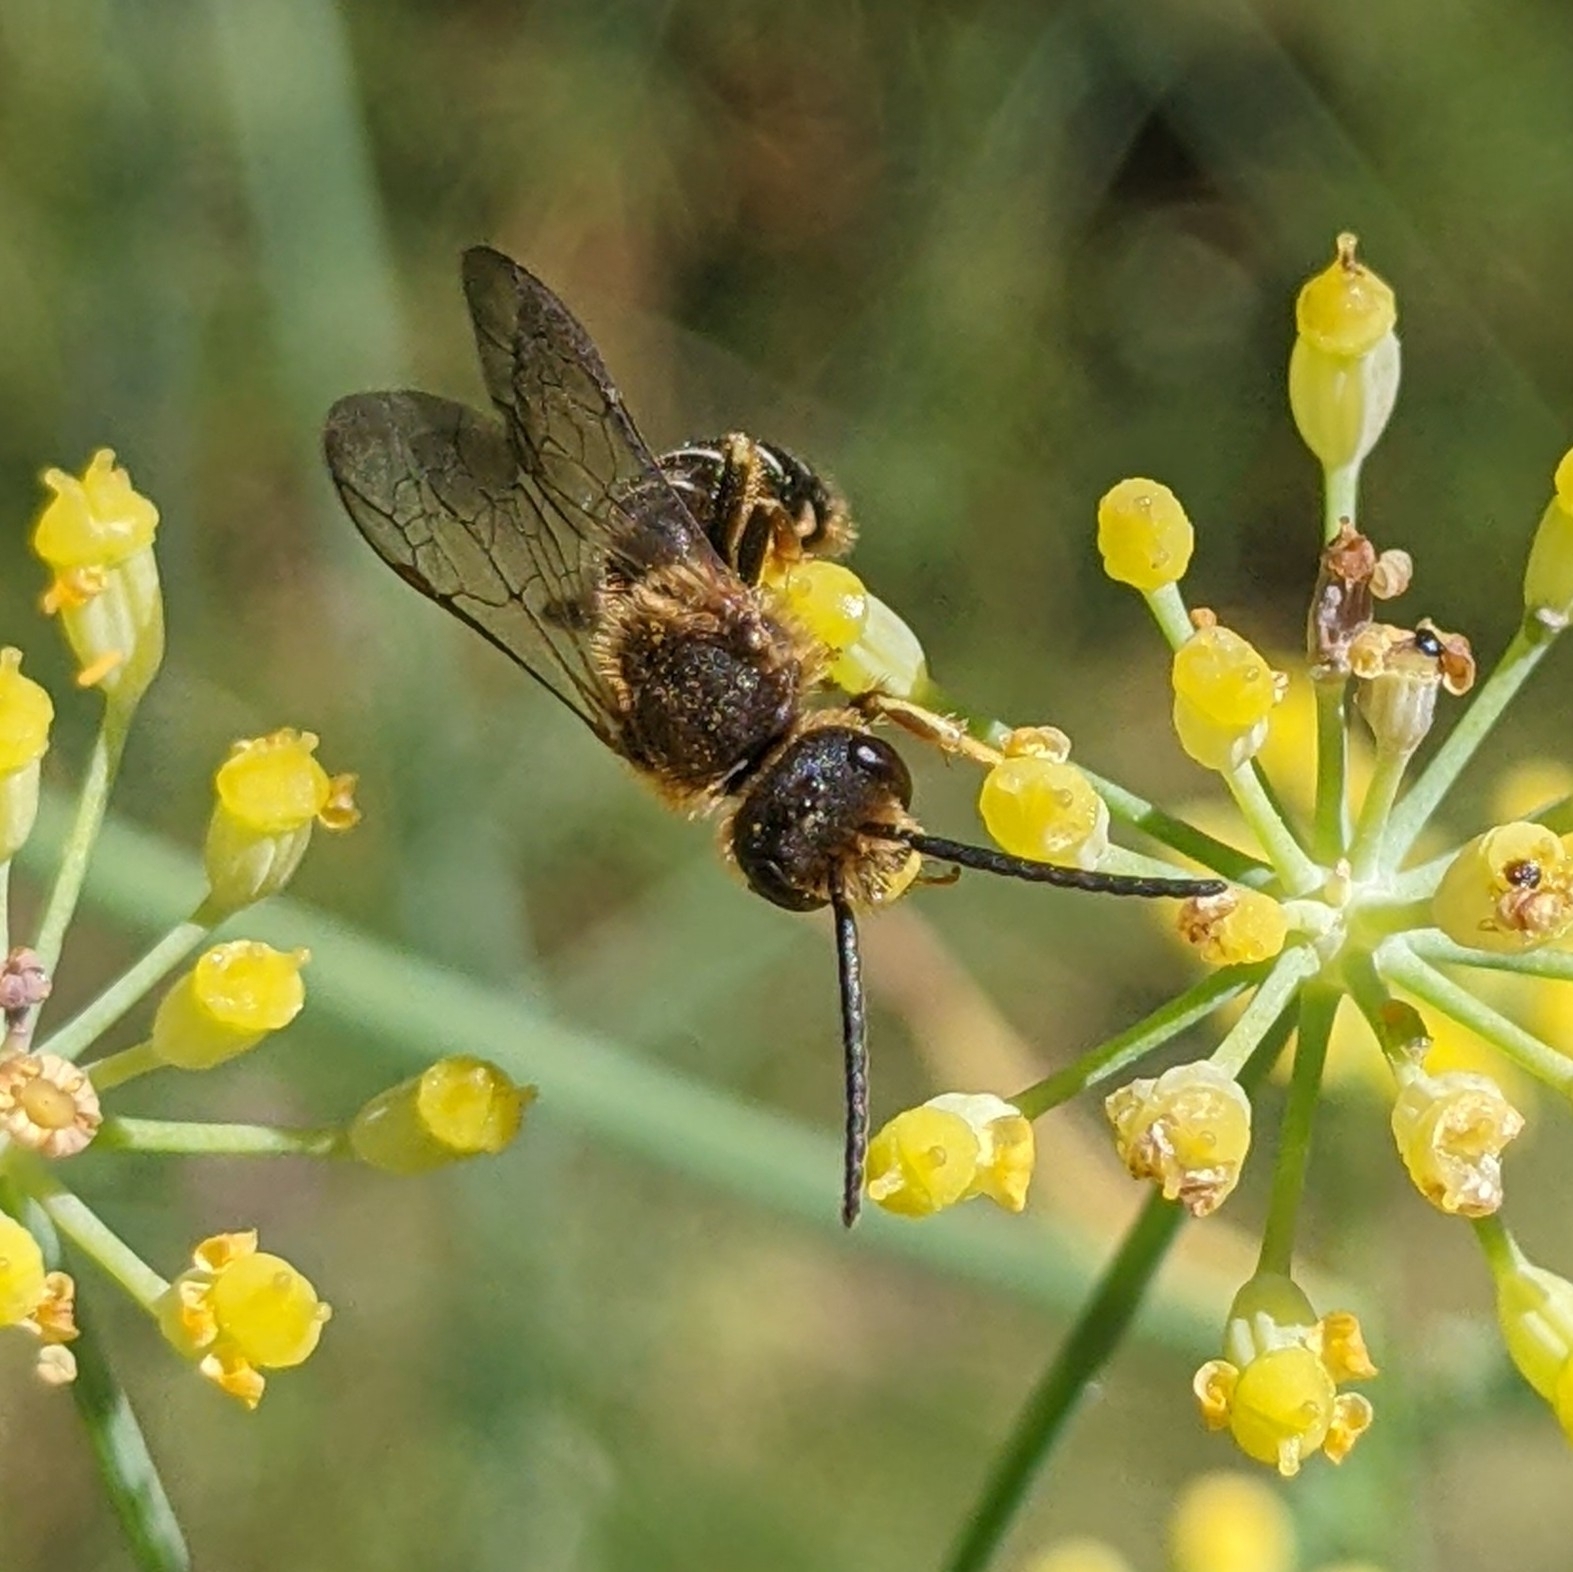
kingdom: Animalia
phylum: Arthropoda
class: Insecta
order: Hymenoptera
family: Halictidae
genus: Halictus
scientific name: Halictus rubicundus
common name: Orange-legged furrow bee
